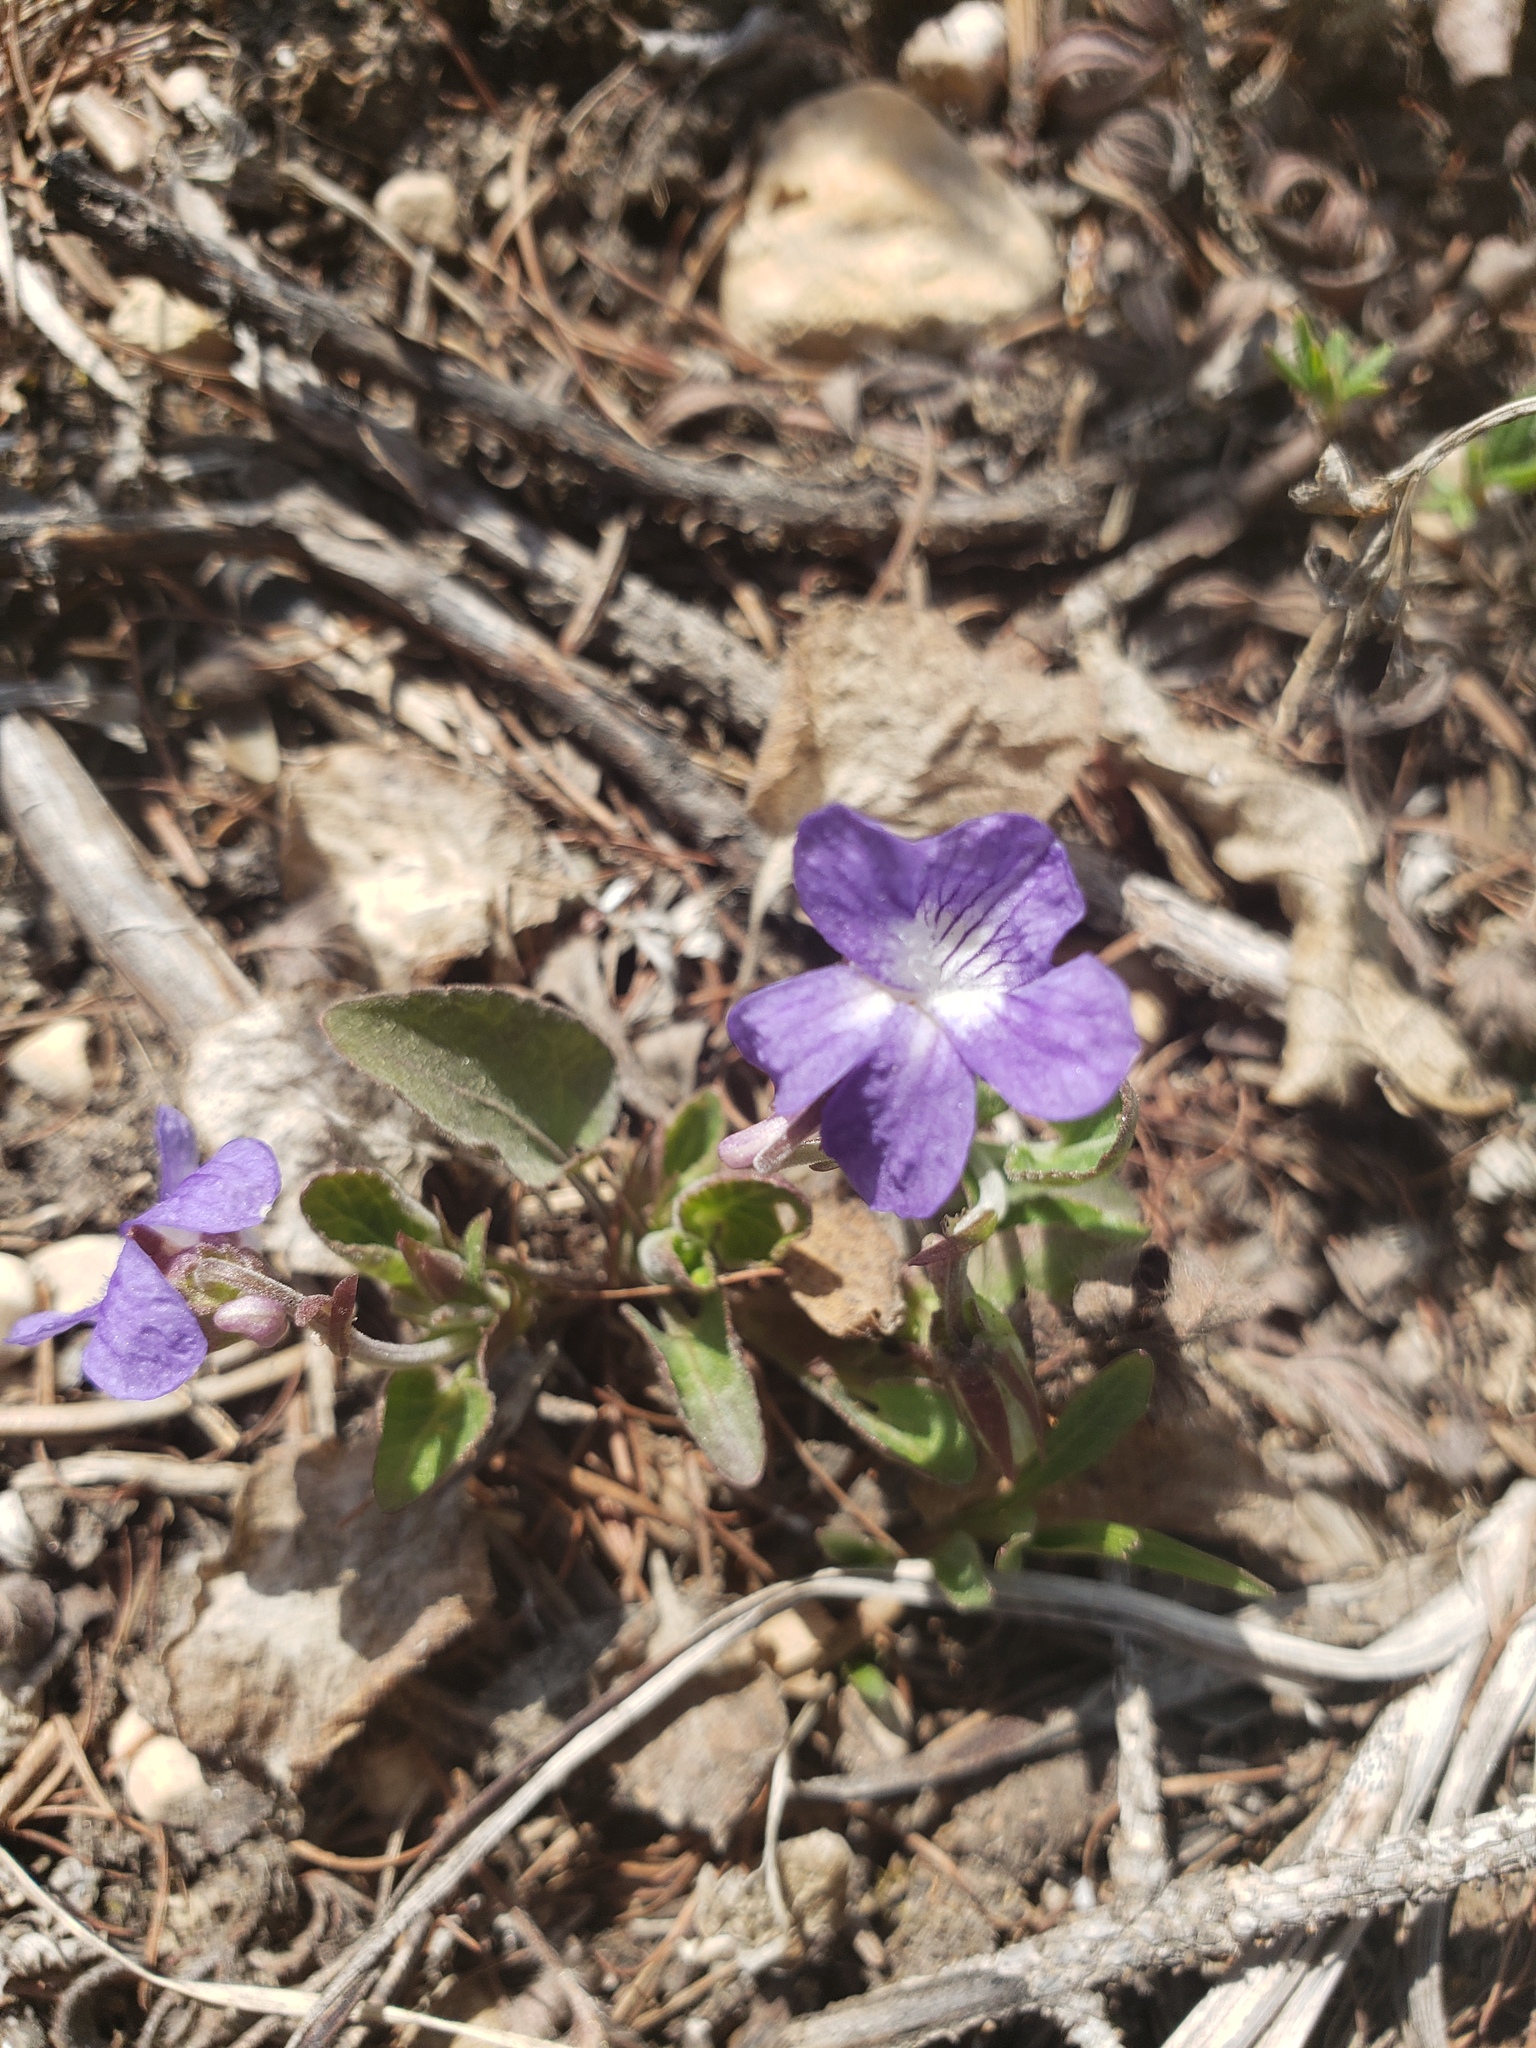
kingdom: Plantae
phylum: Tracheophyta
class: Magnoliopsida
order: Malpighiales
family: Violaceae
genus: Viola
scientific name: Viola adunca
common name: Sand violet
